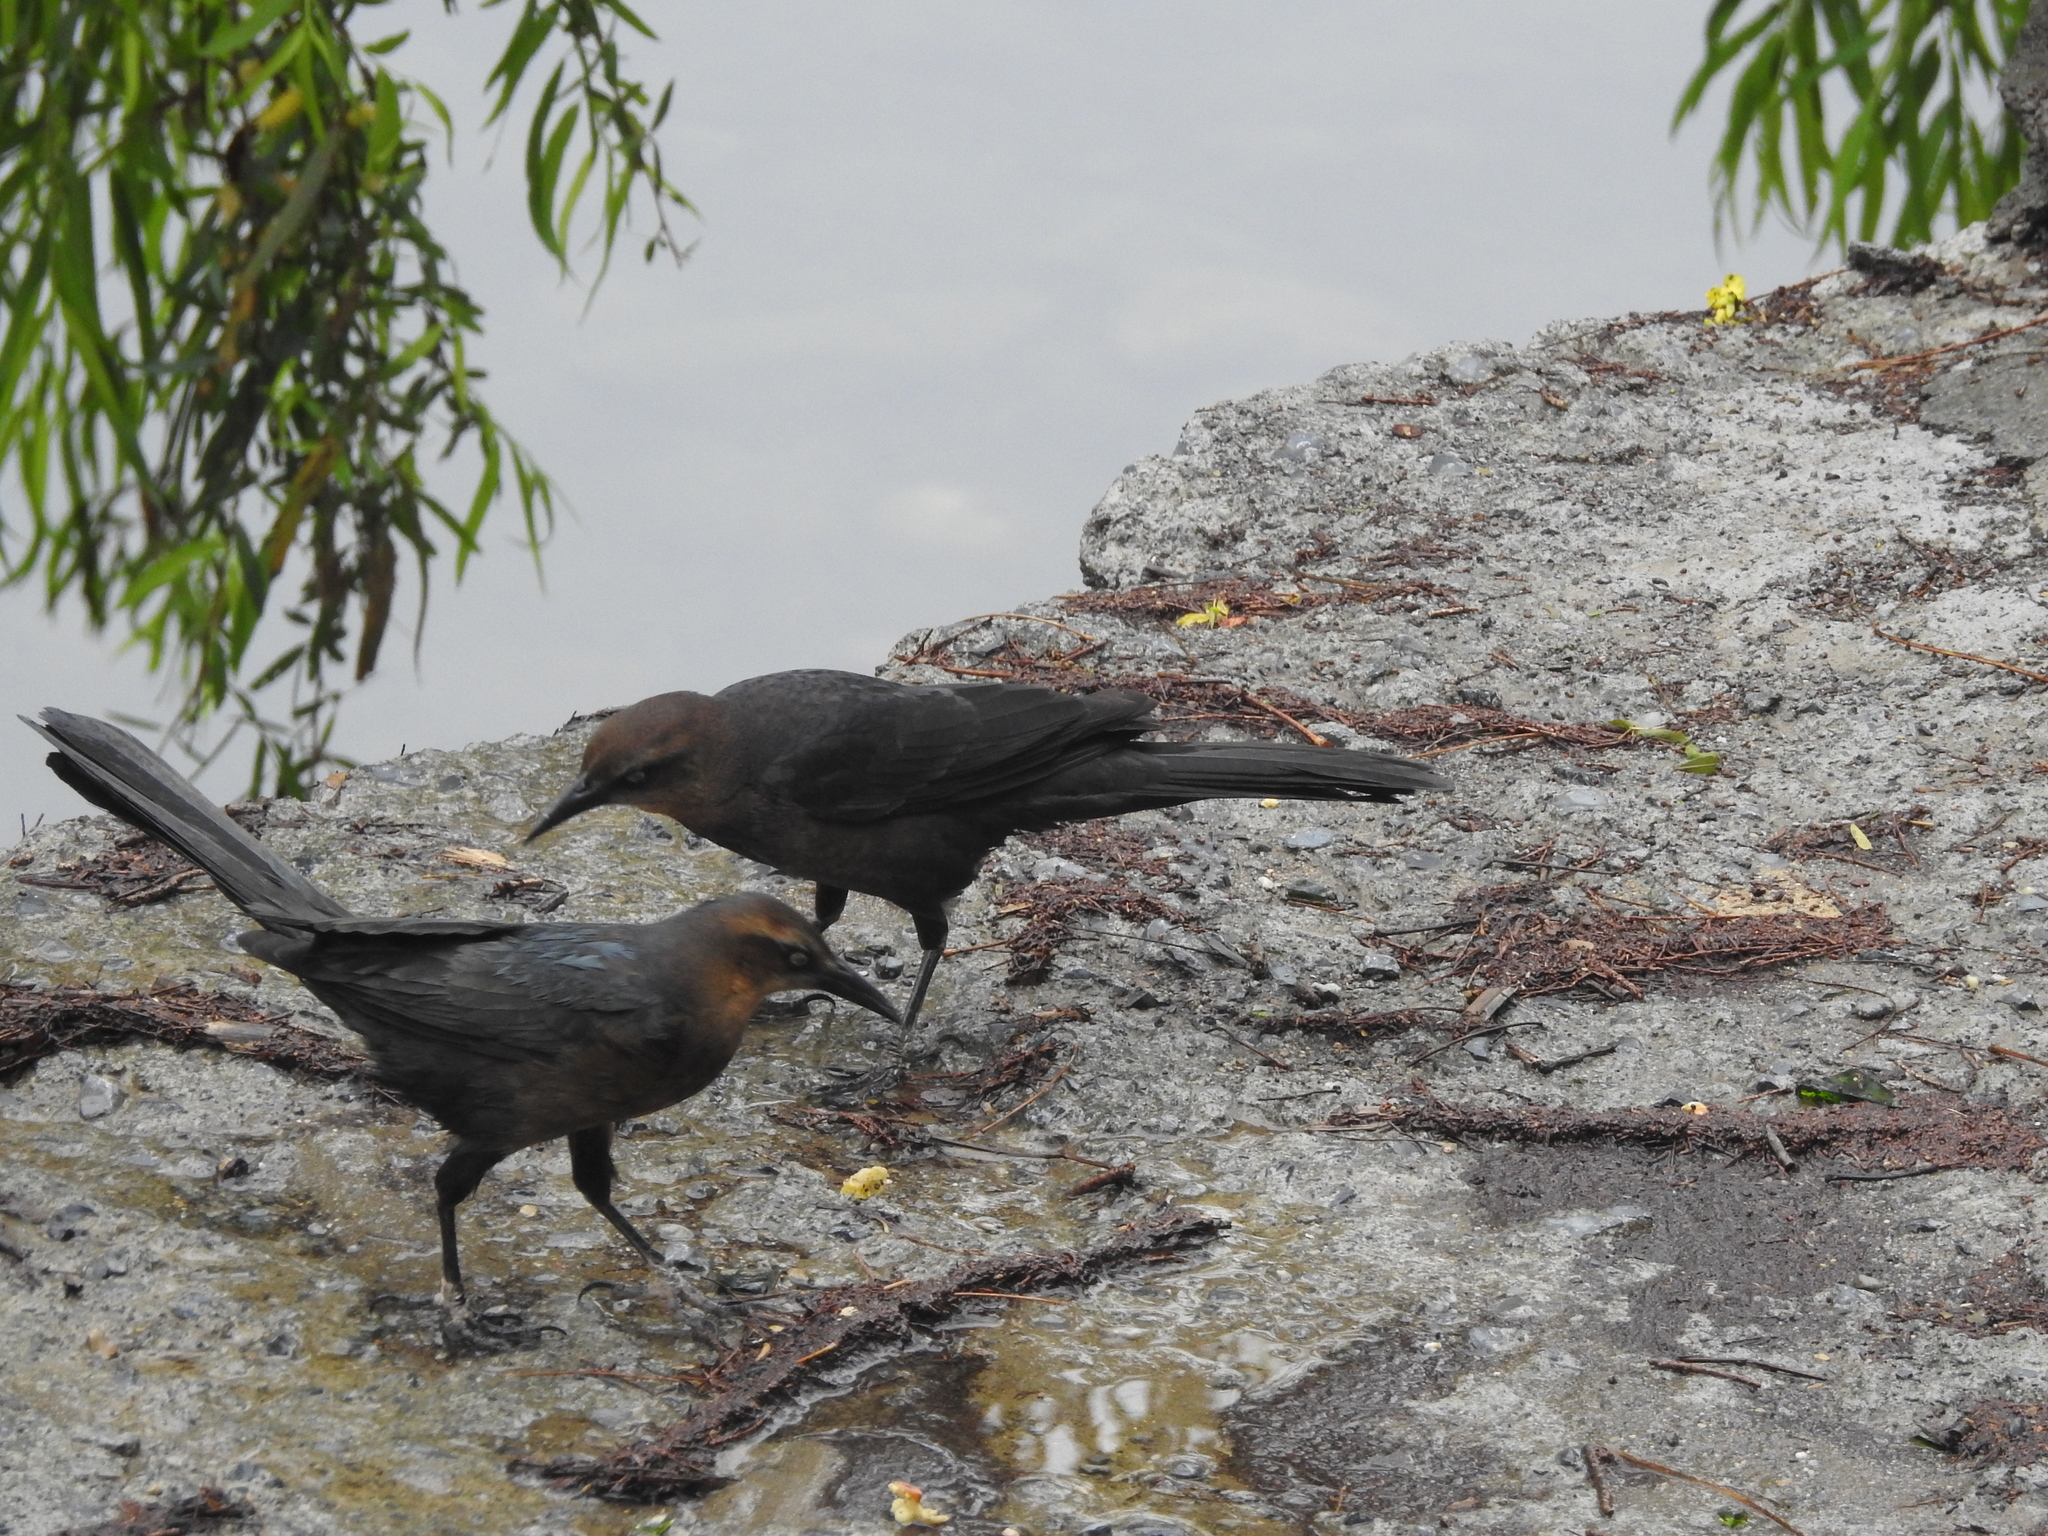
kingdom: Animalia
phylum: Chordata
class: Aves
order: Passeriformes
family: Icteridae
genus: Quiscalus
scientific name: Quiscalus mexicanus
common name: Great-tailed grackle
